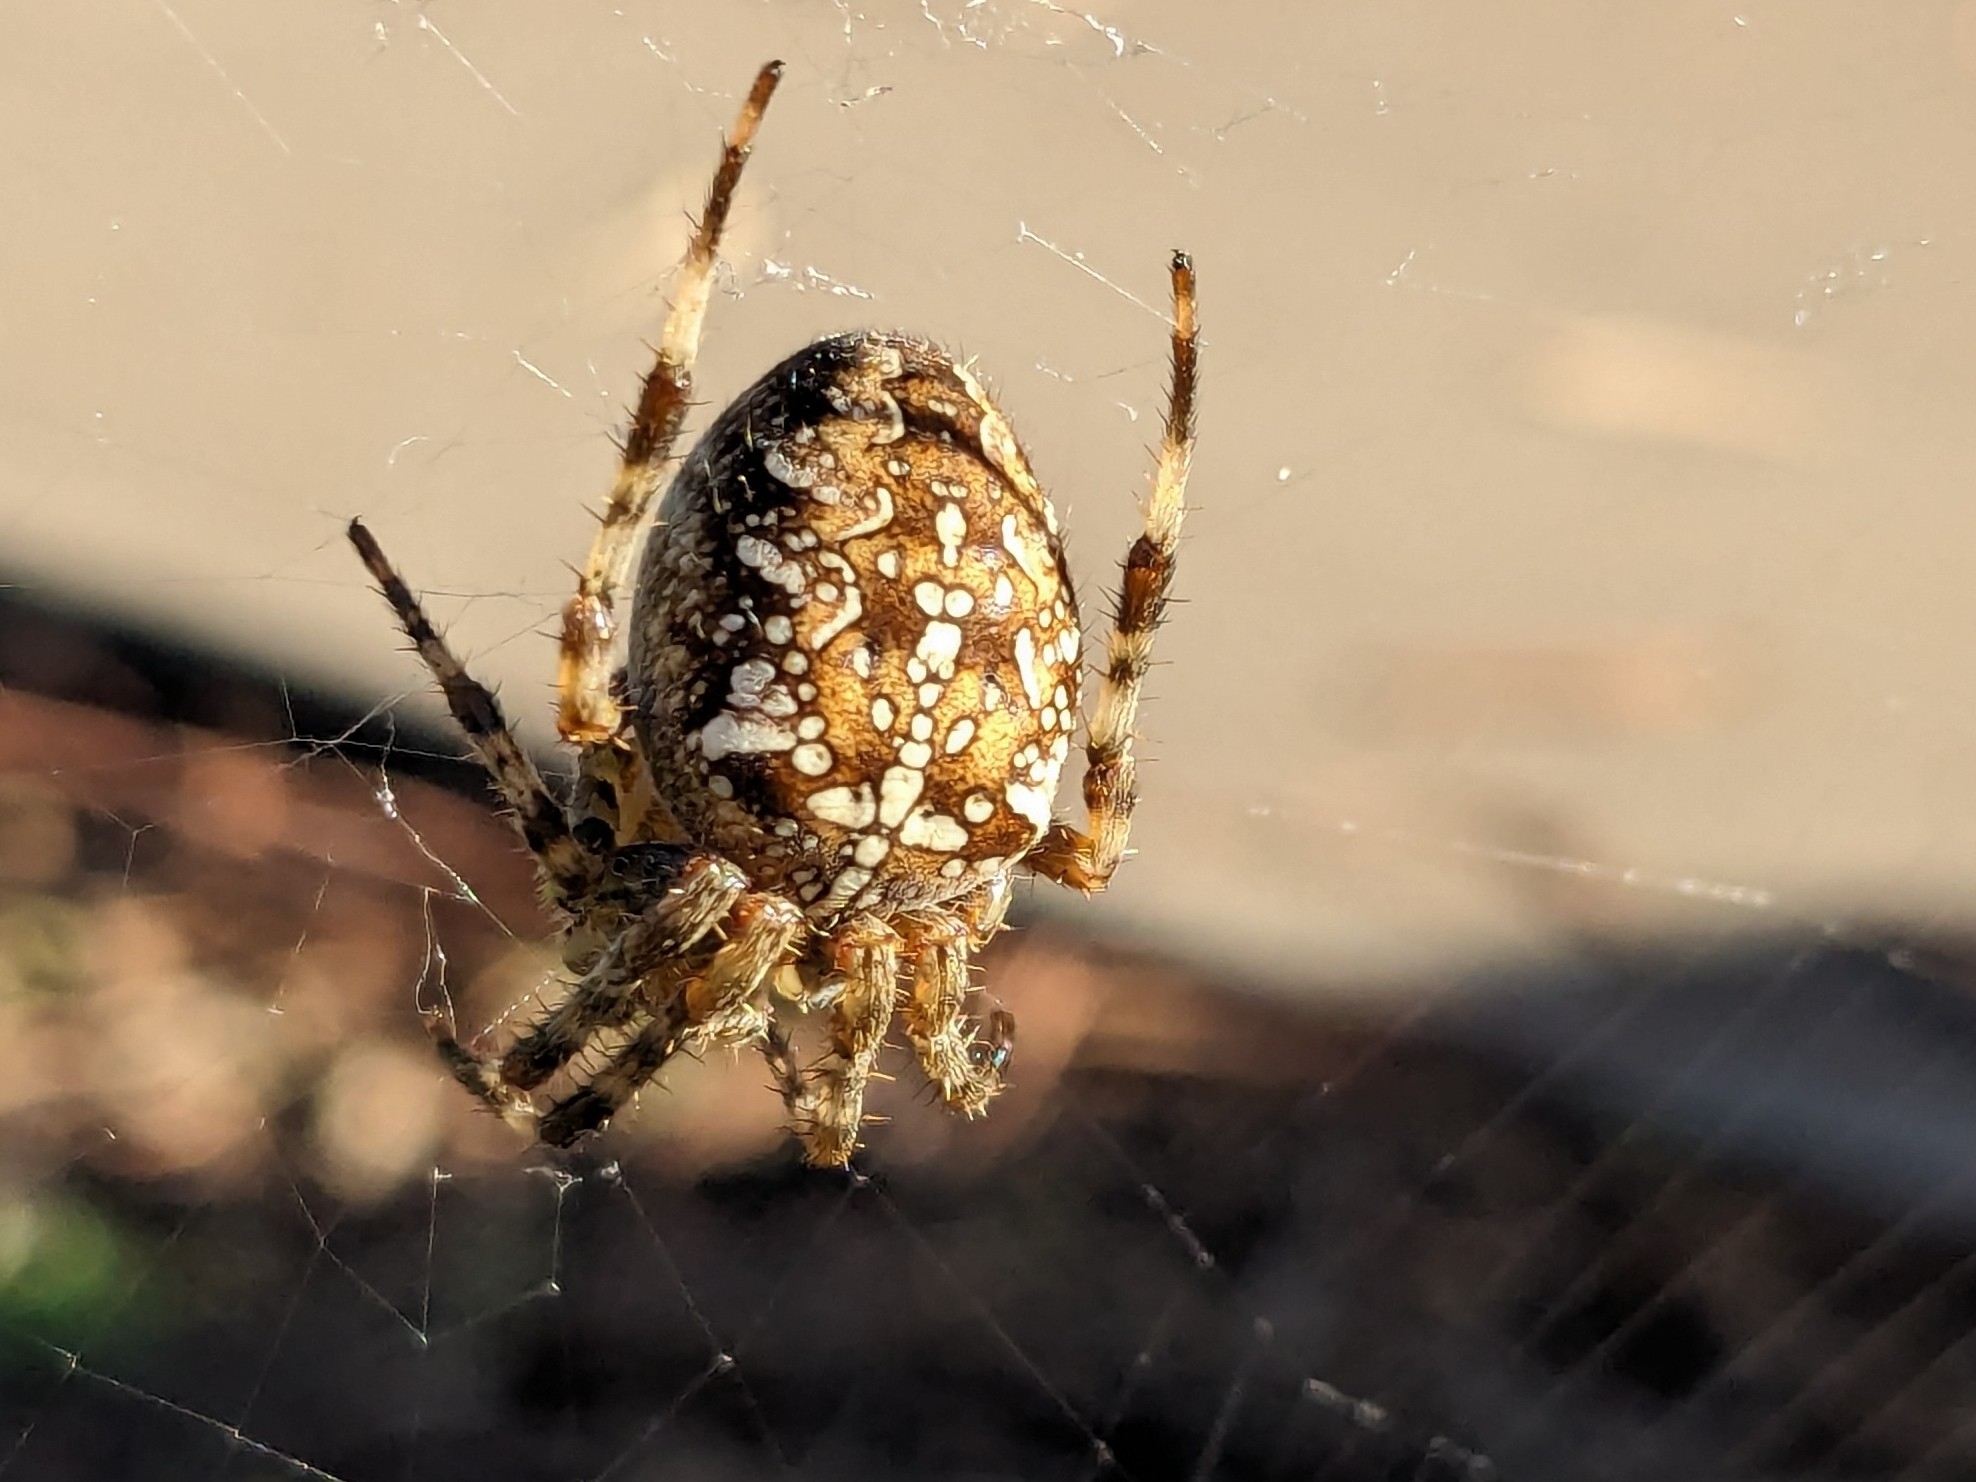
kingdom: Animalia
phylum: Arthropoda
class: Arachnida
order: Araneae
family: Araneidae
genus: Araneus
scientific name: Araneus diadematus
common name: Cross orbweaver
